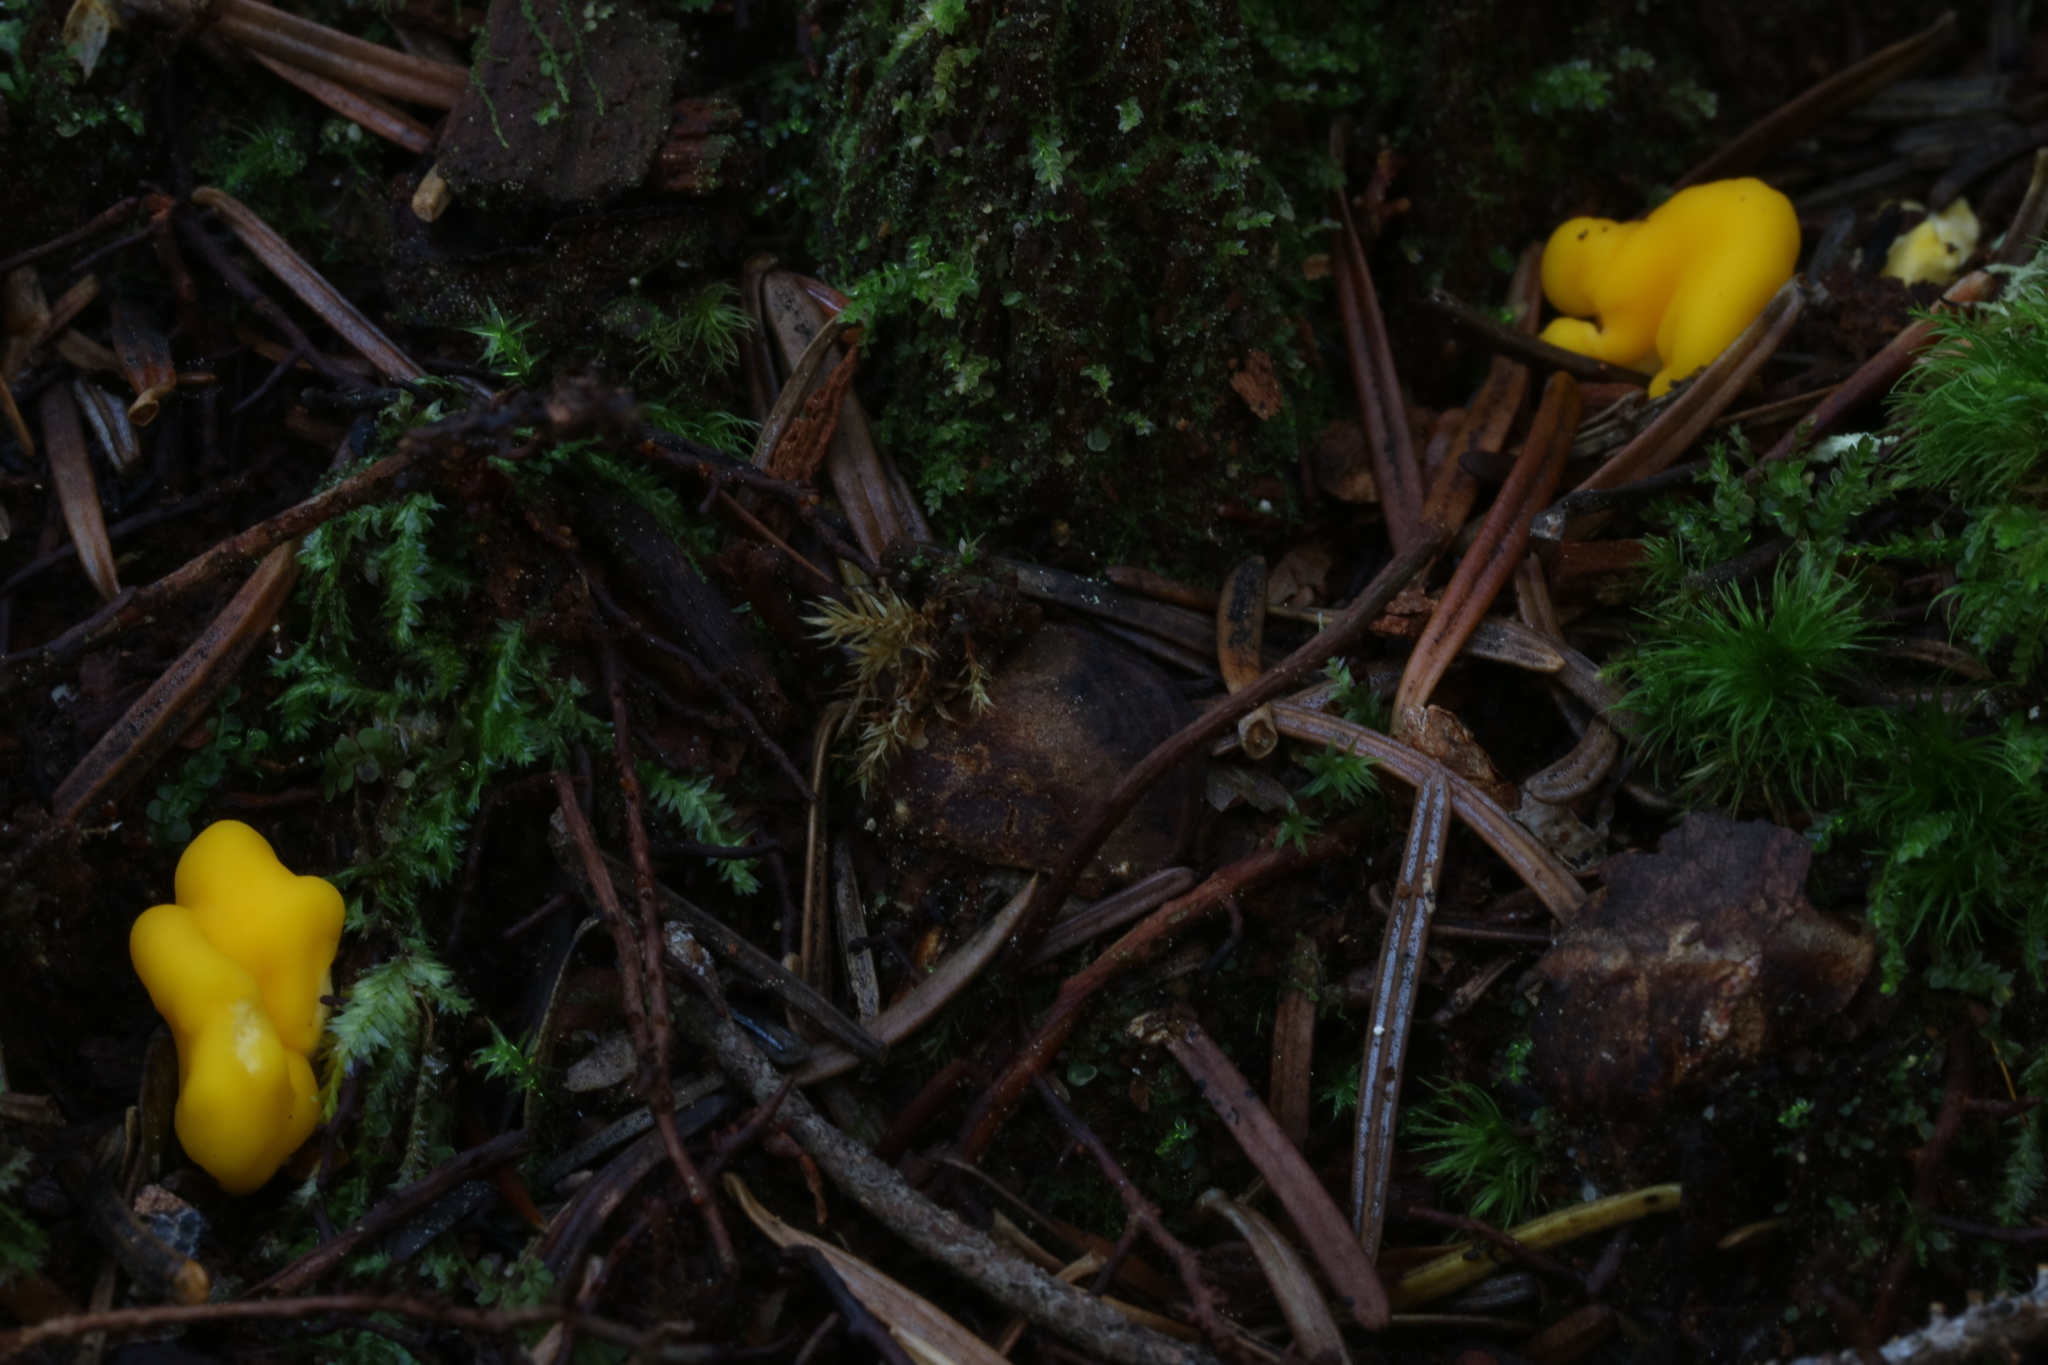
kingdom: Fungi
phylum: Ascomycota
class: Neolectomycetes
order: Neolectales
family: Neolectaceae
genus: Neolecta
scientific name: Neolecta irregularis
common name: Irregular earth tongue
